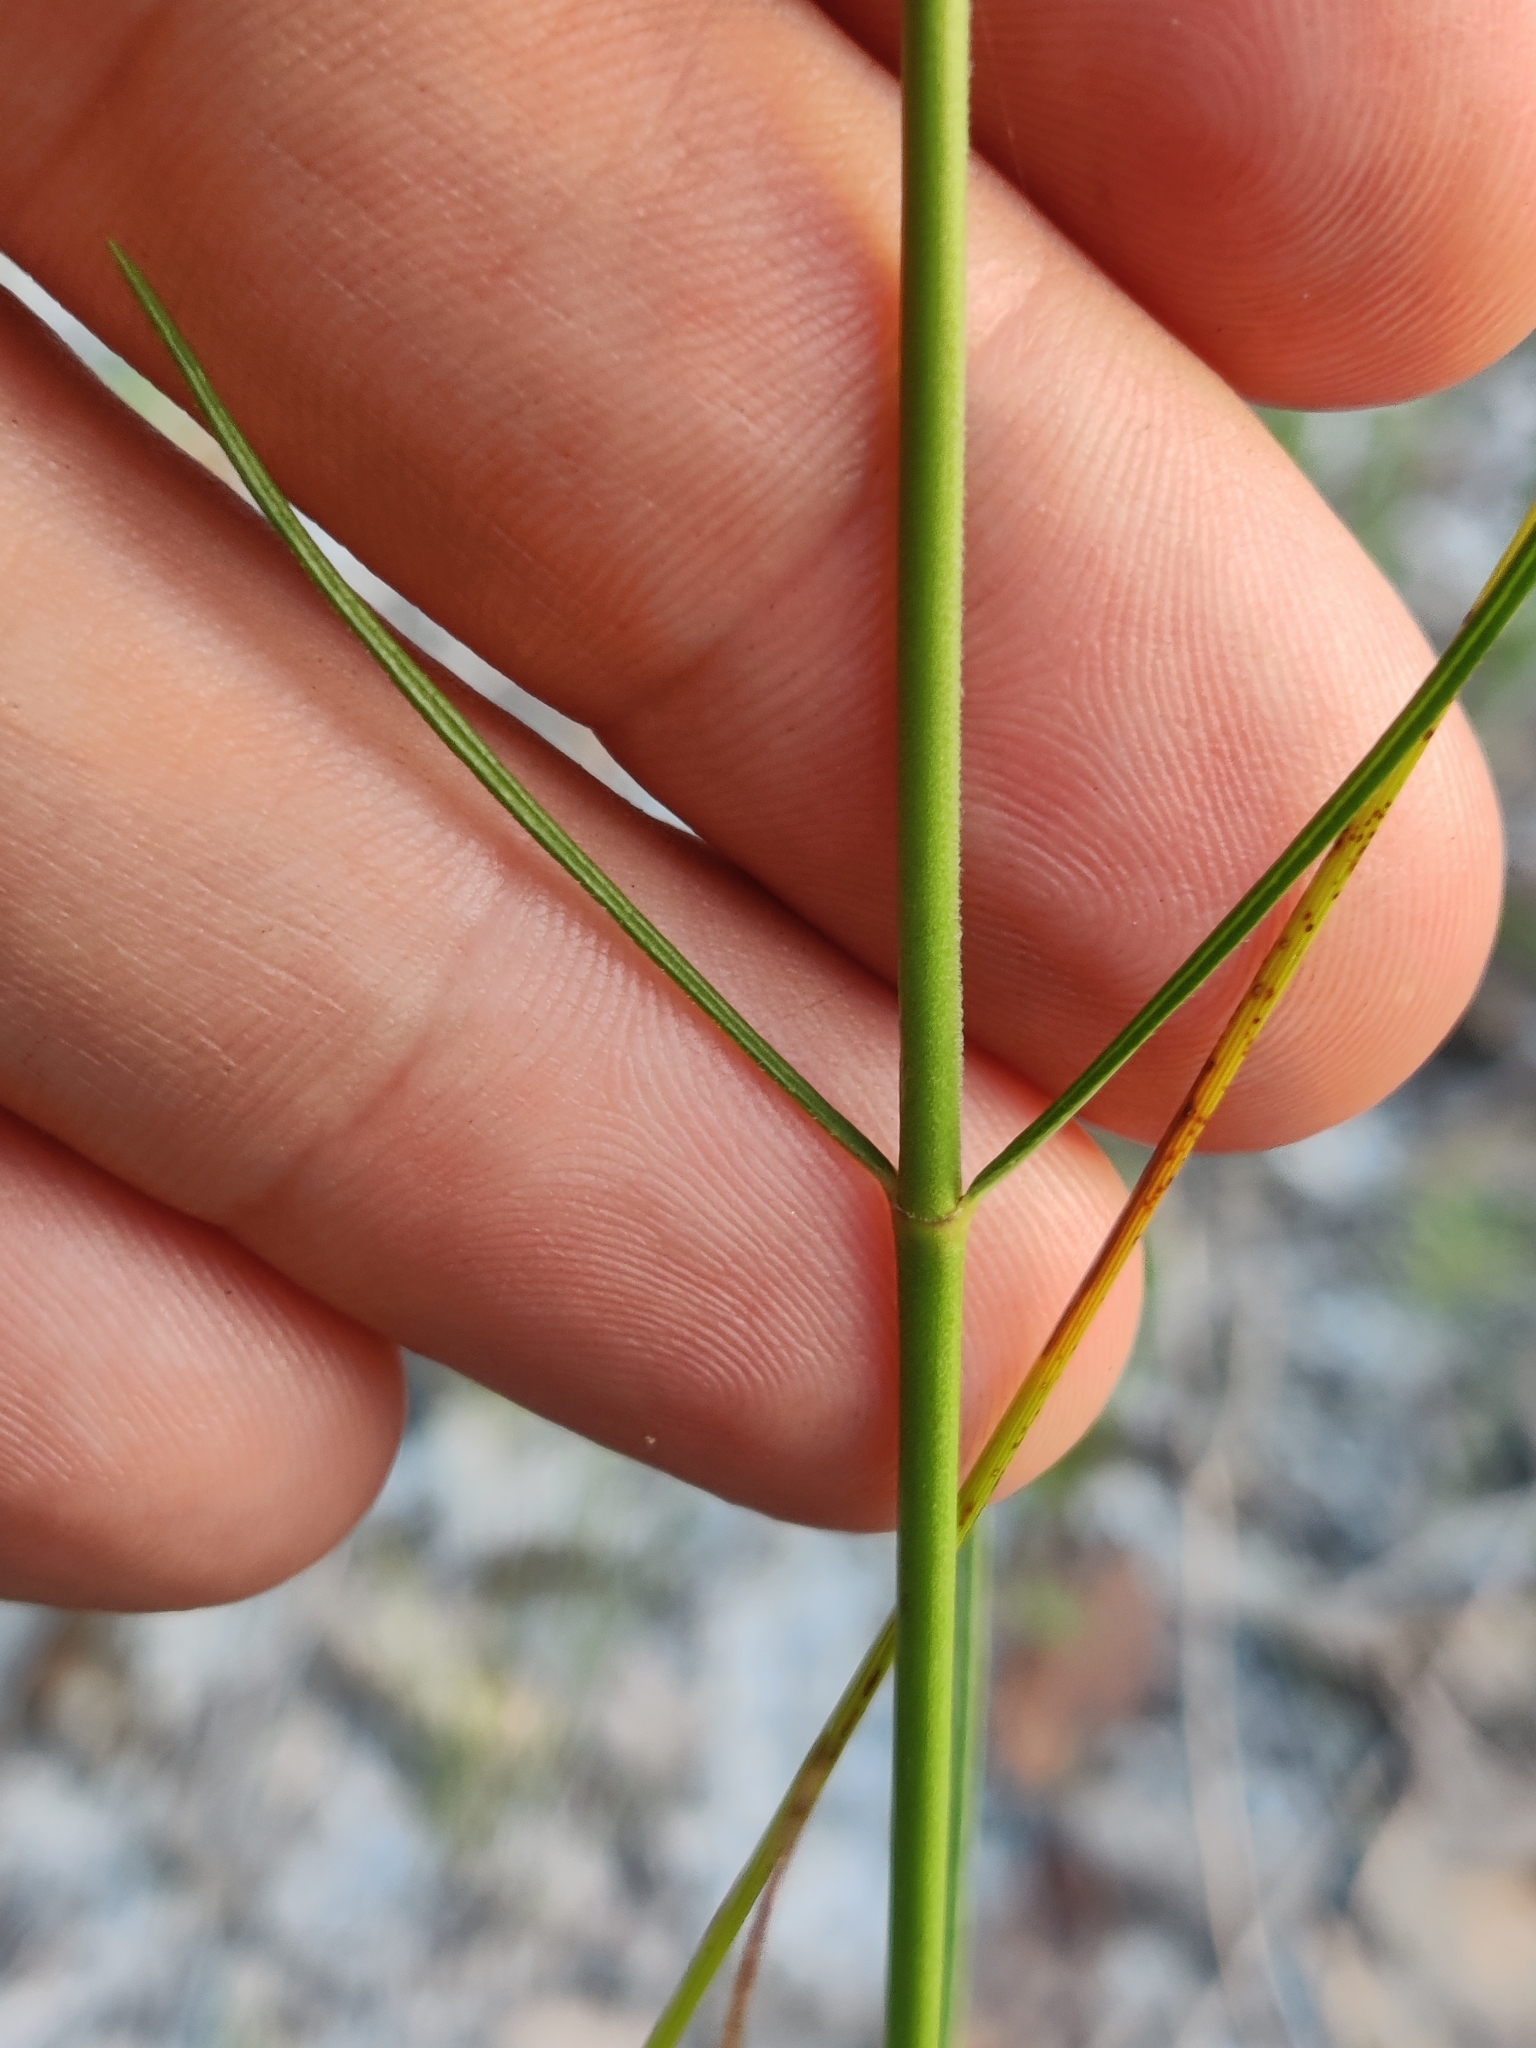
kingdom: Plantae
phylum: Tracheophyta
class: Magnoliopsida
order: Gentianales
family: Apocynaceae
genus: Asclepias
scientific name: Asclepias cinerea
